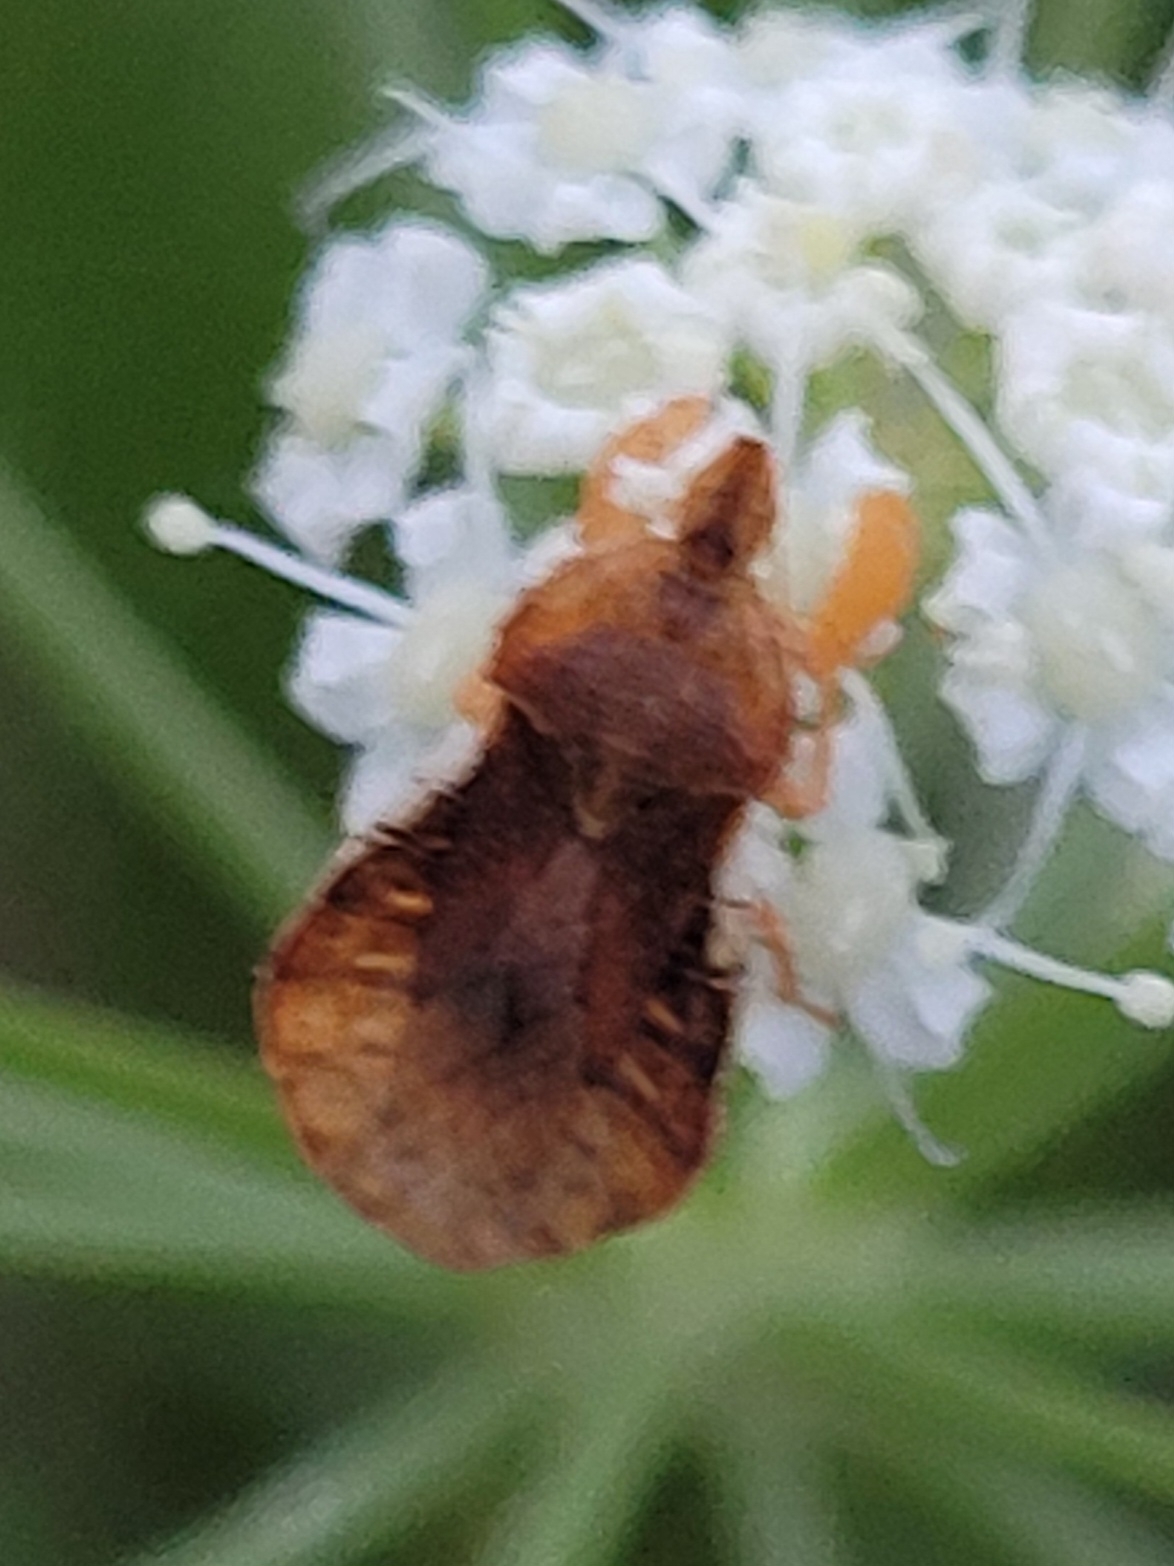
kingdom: Animalia
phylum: Arthropoda
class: Insecta
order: Hemiptera
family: Reduviidae
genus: Phymata
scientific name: Phymata crassipes
